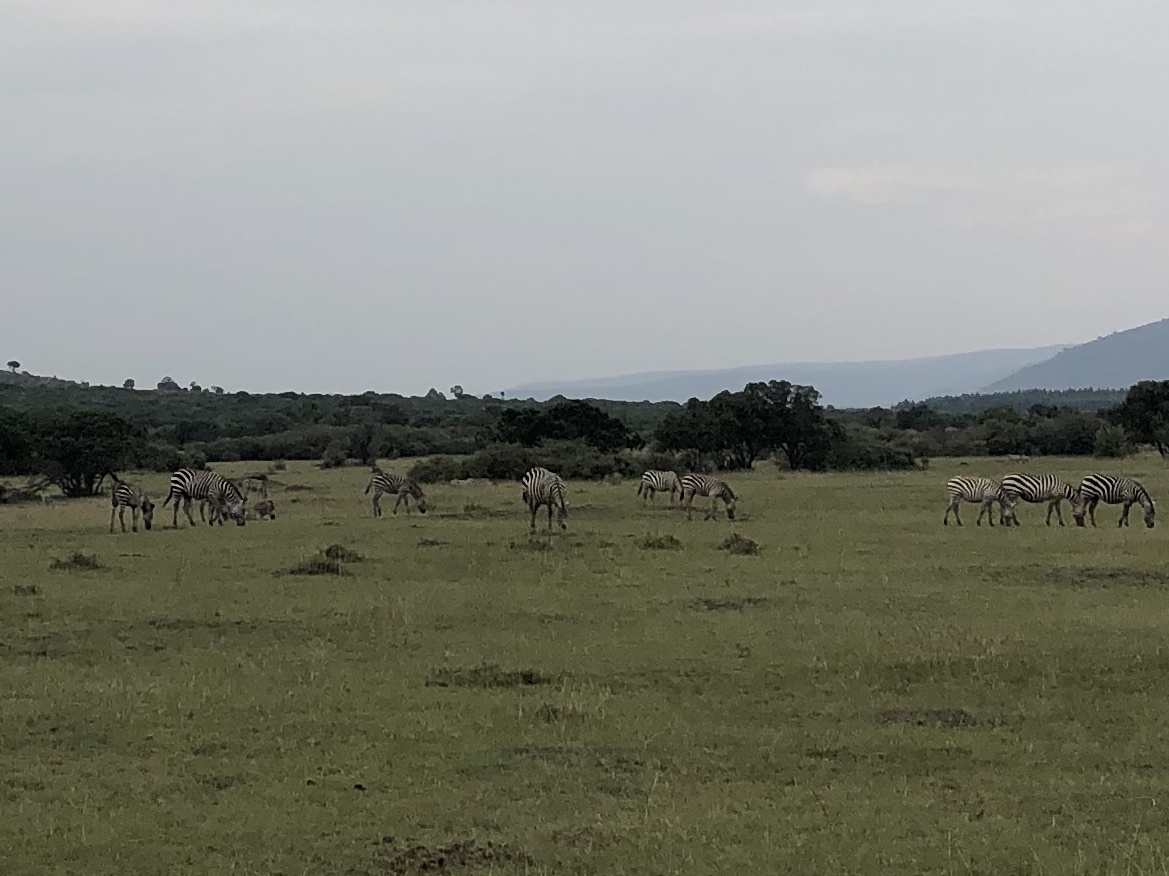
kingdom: Animalia
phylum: Chordata
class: Mammalia
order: Perissodactyla
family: Equidae
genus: Equus
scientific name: Equus quagga
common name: Plains zebra
